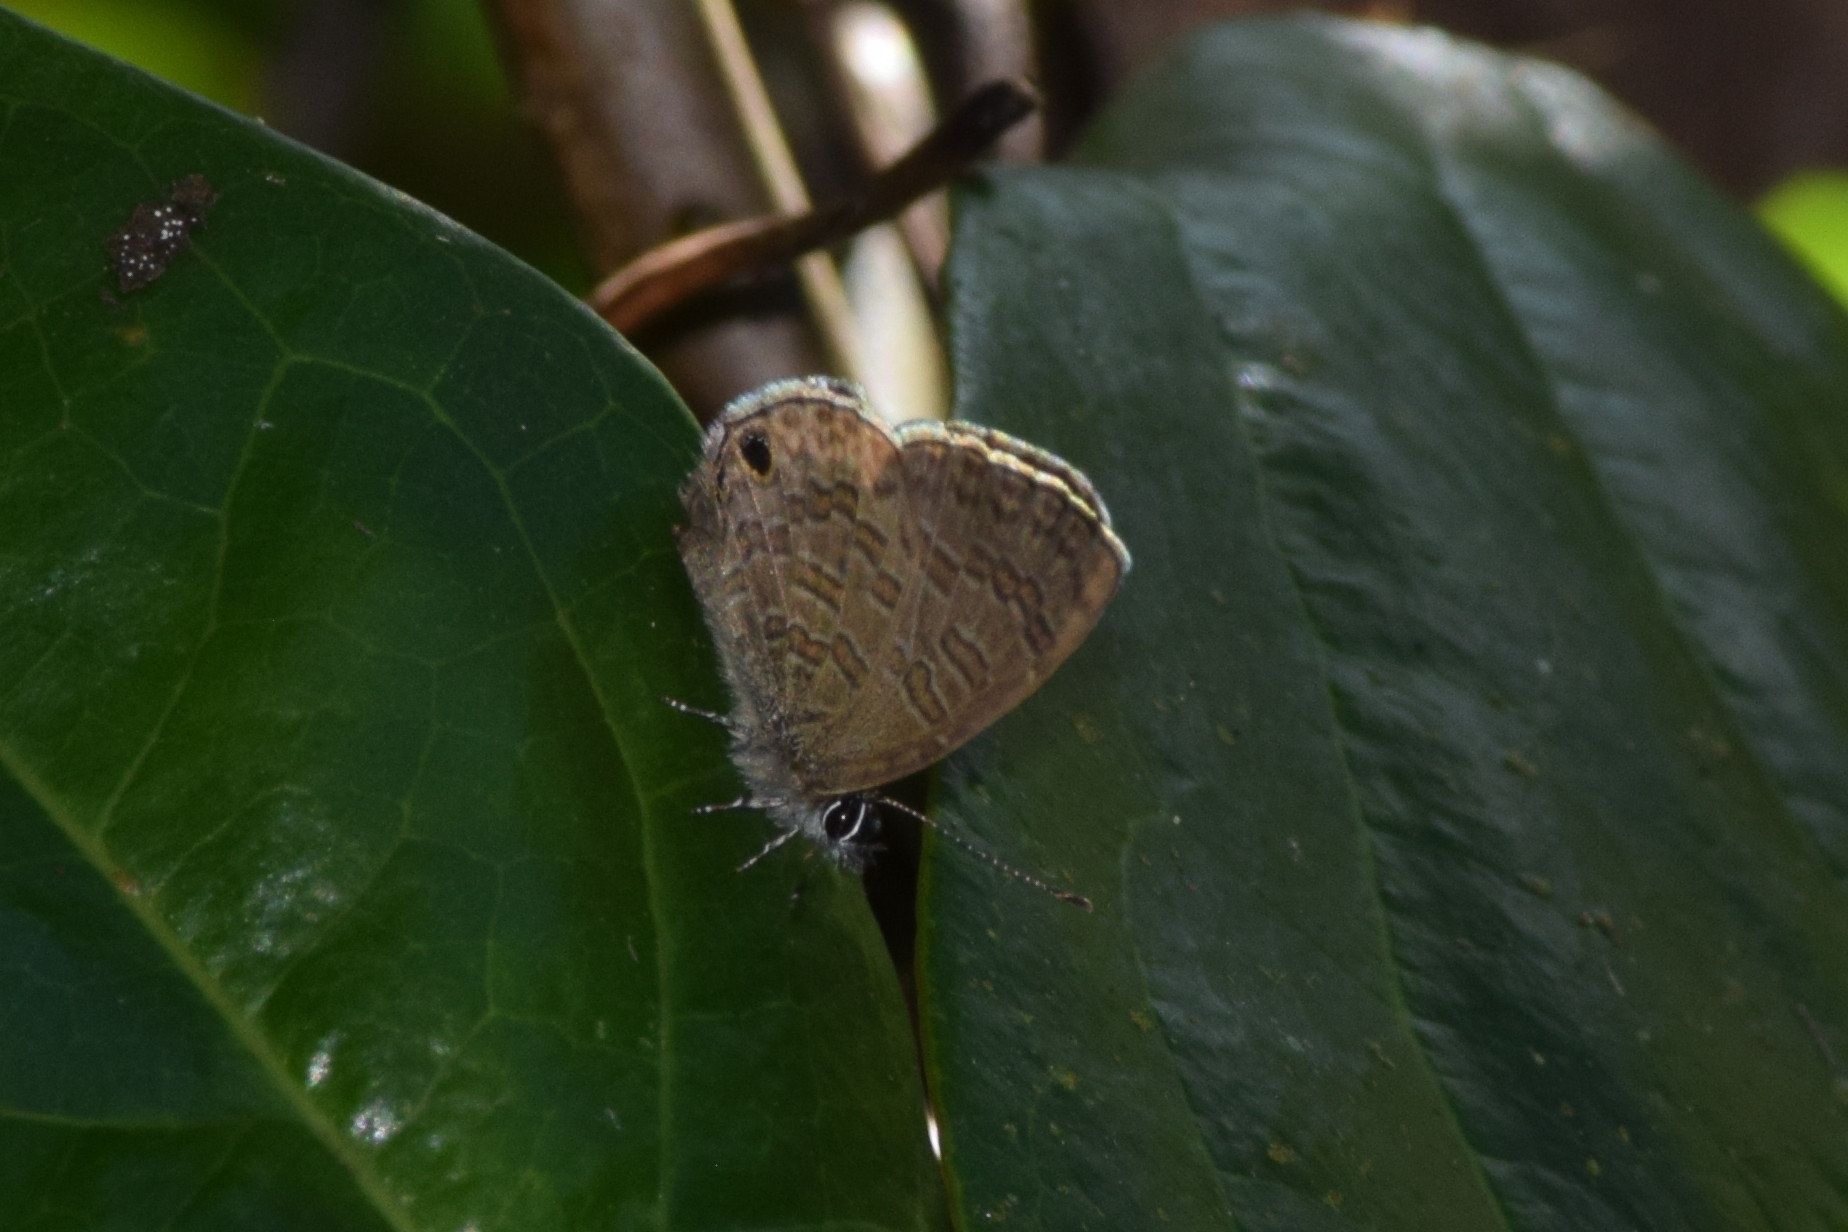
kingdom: Animalia
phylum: Arthropoda
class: Insecta
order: Lepidoptera
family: Lycaenidae
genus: Prosotas
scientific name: Prosotas nora
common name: Common line blue
